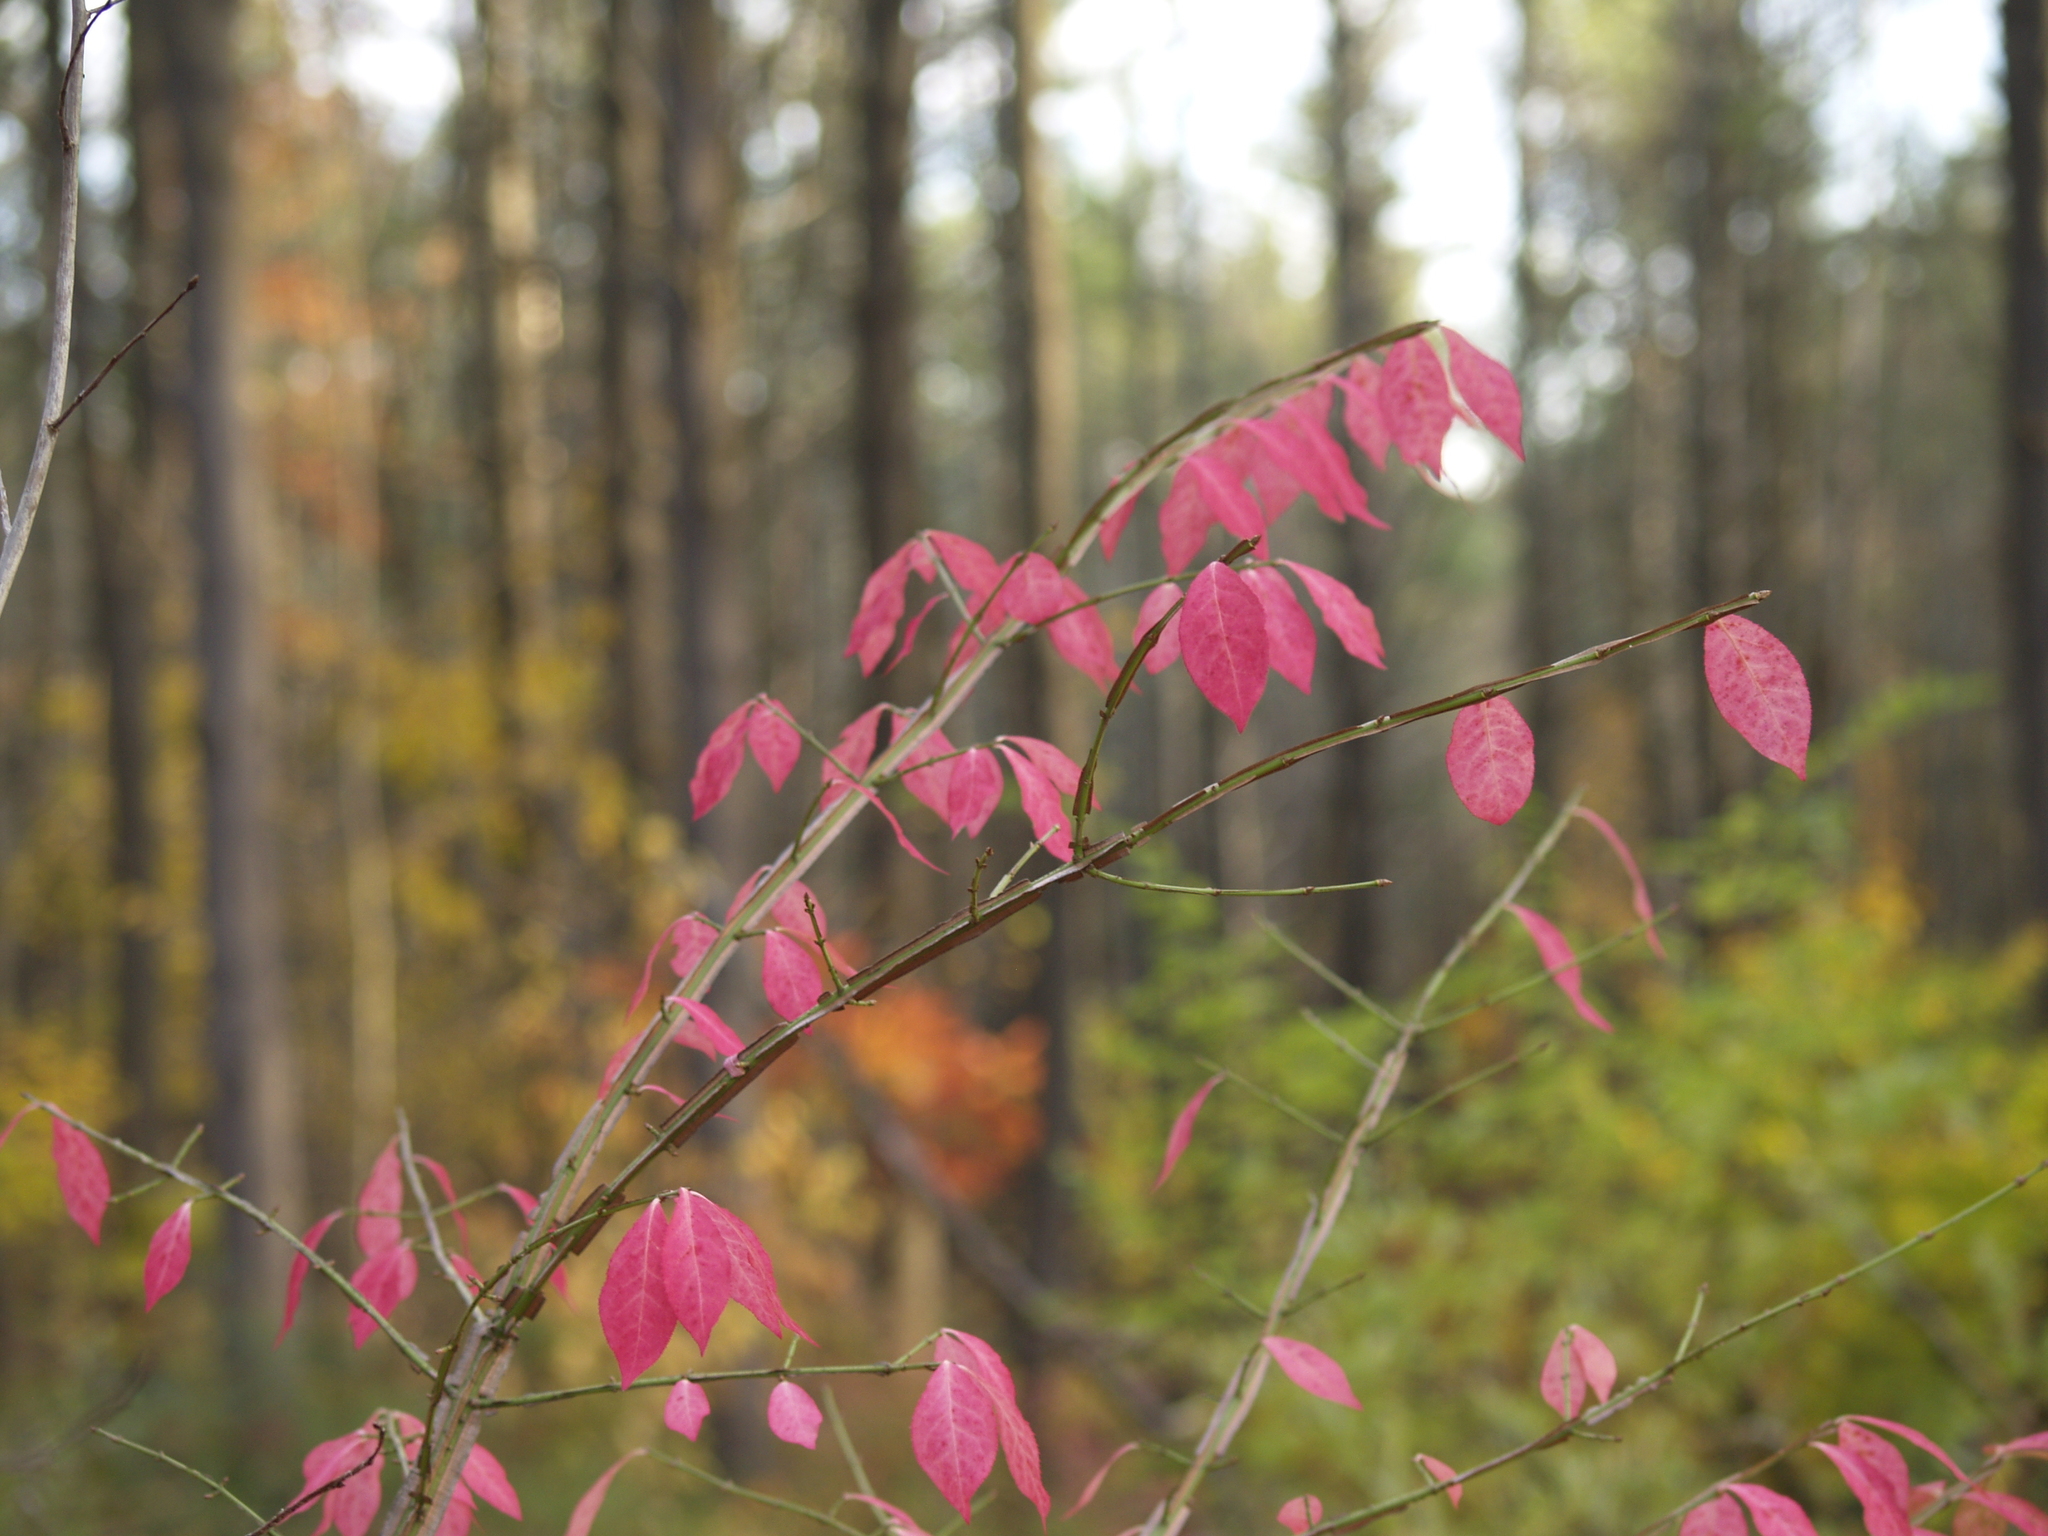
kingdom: Plantae
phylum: Tracheophyta
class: Magnoliopsida
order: Celastrales
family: Celastraceae
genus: Euonymus
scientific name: Euonymus alatus
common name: Winged euonymus
